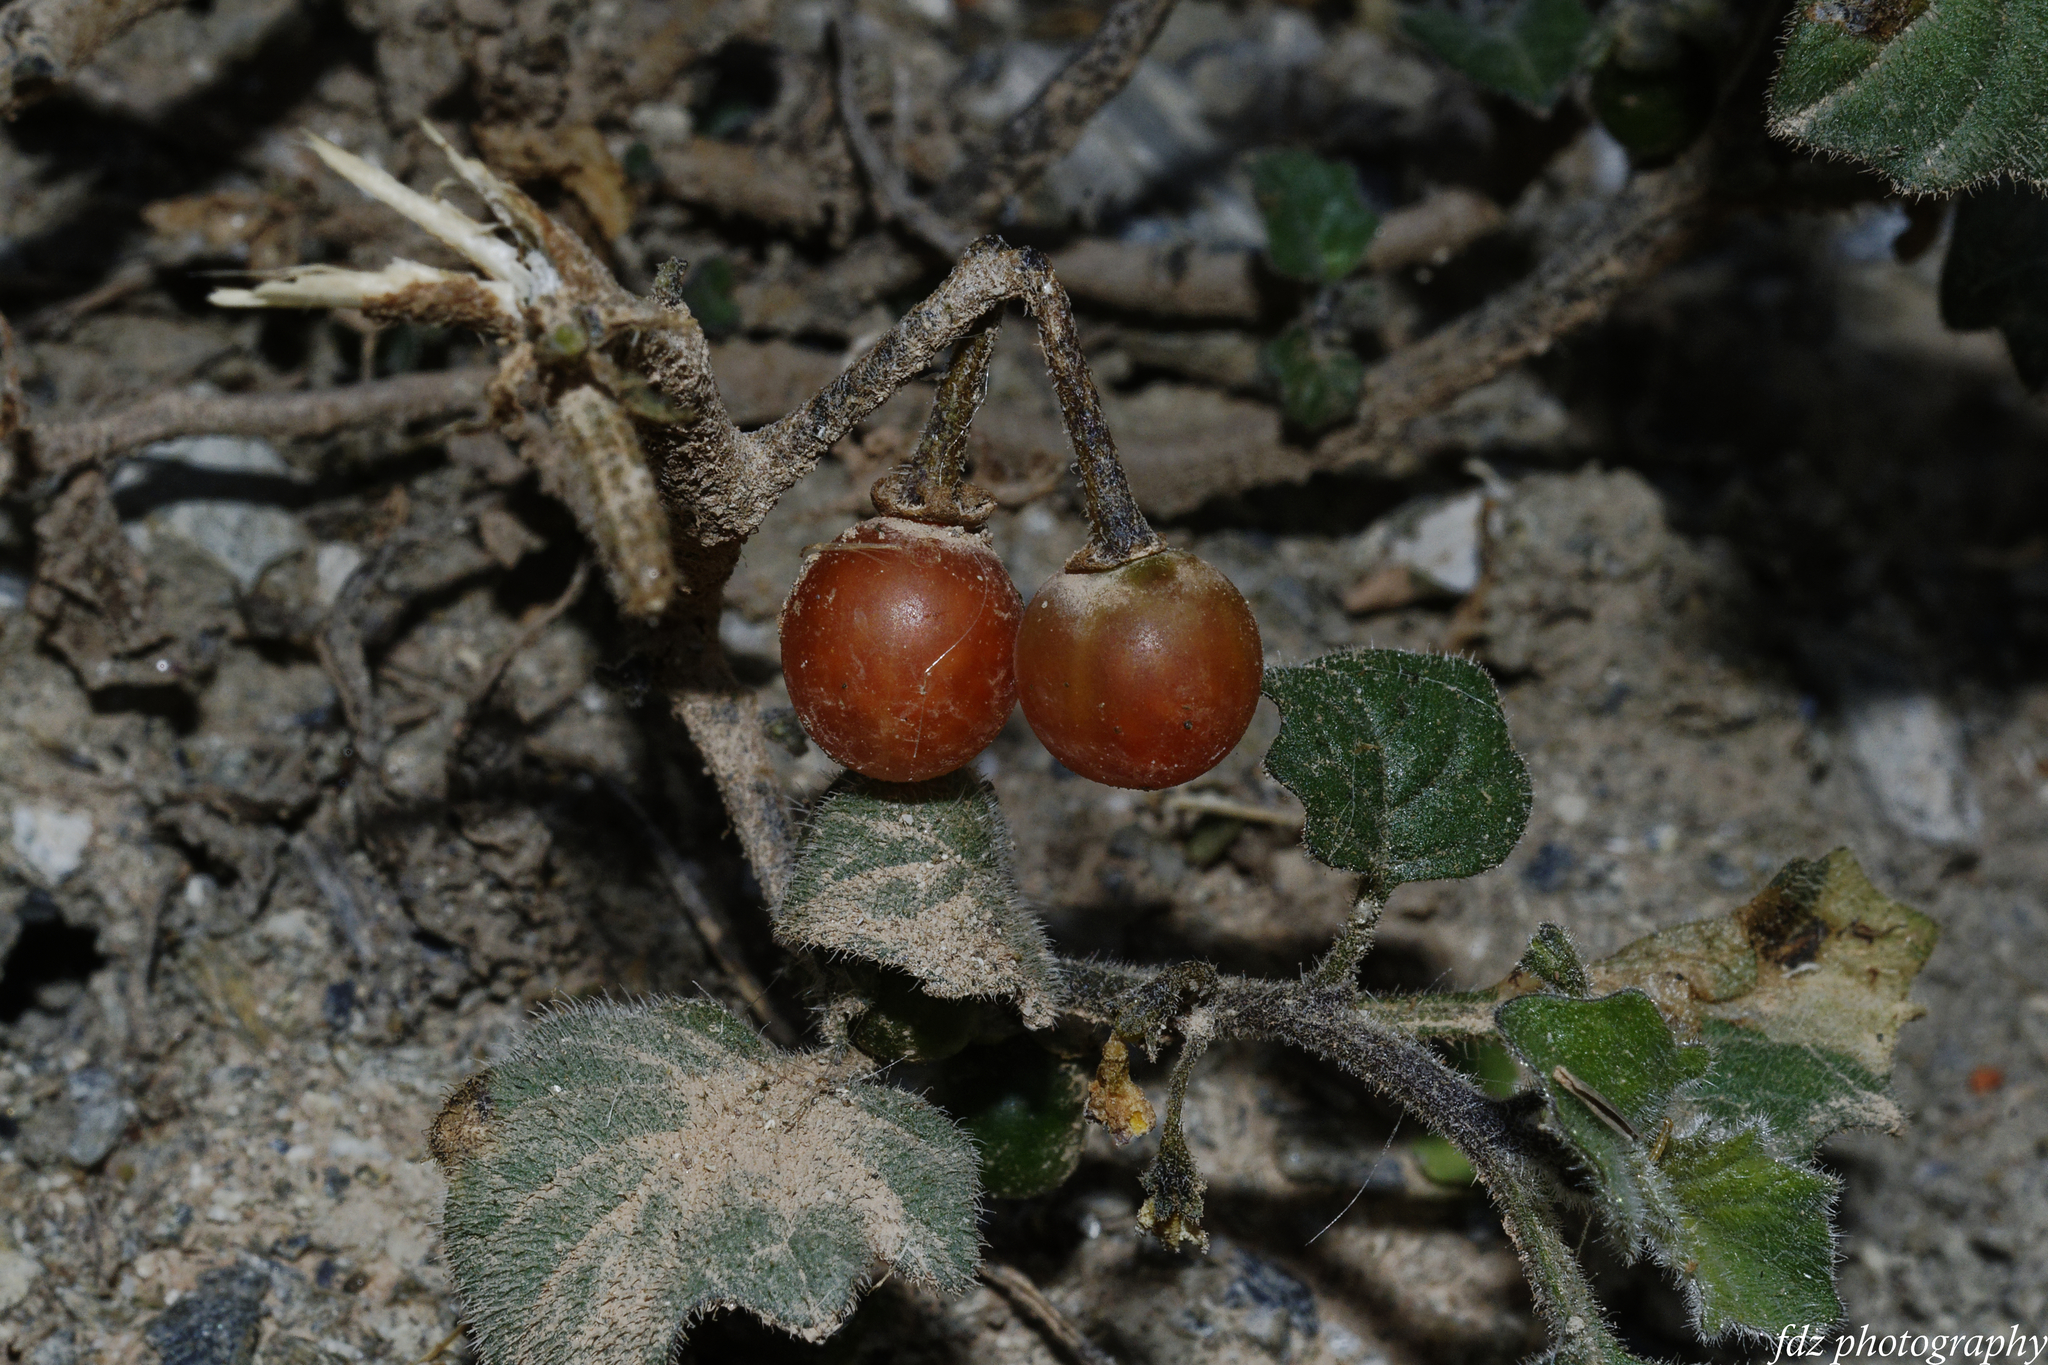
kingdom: Plantae
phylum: Tracheophyta
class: Magnoliopsida
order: Solanales
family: Solanaceae
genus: Solanum
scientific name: Solanum villosum
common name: Red nightshade
